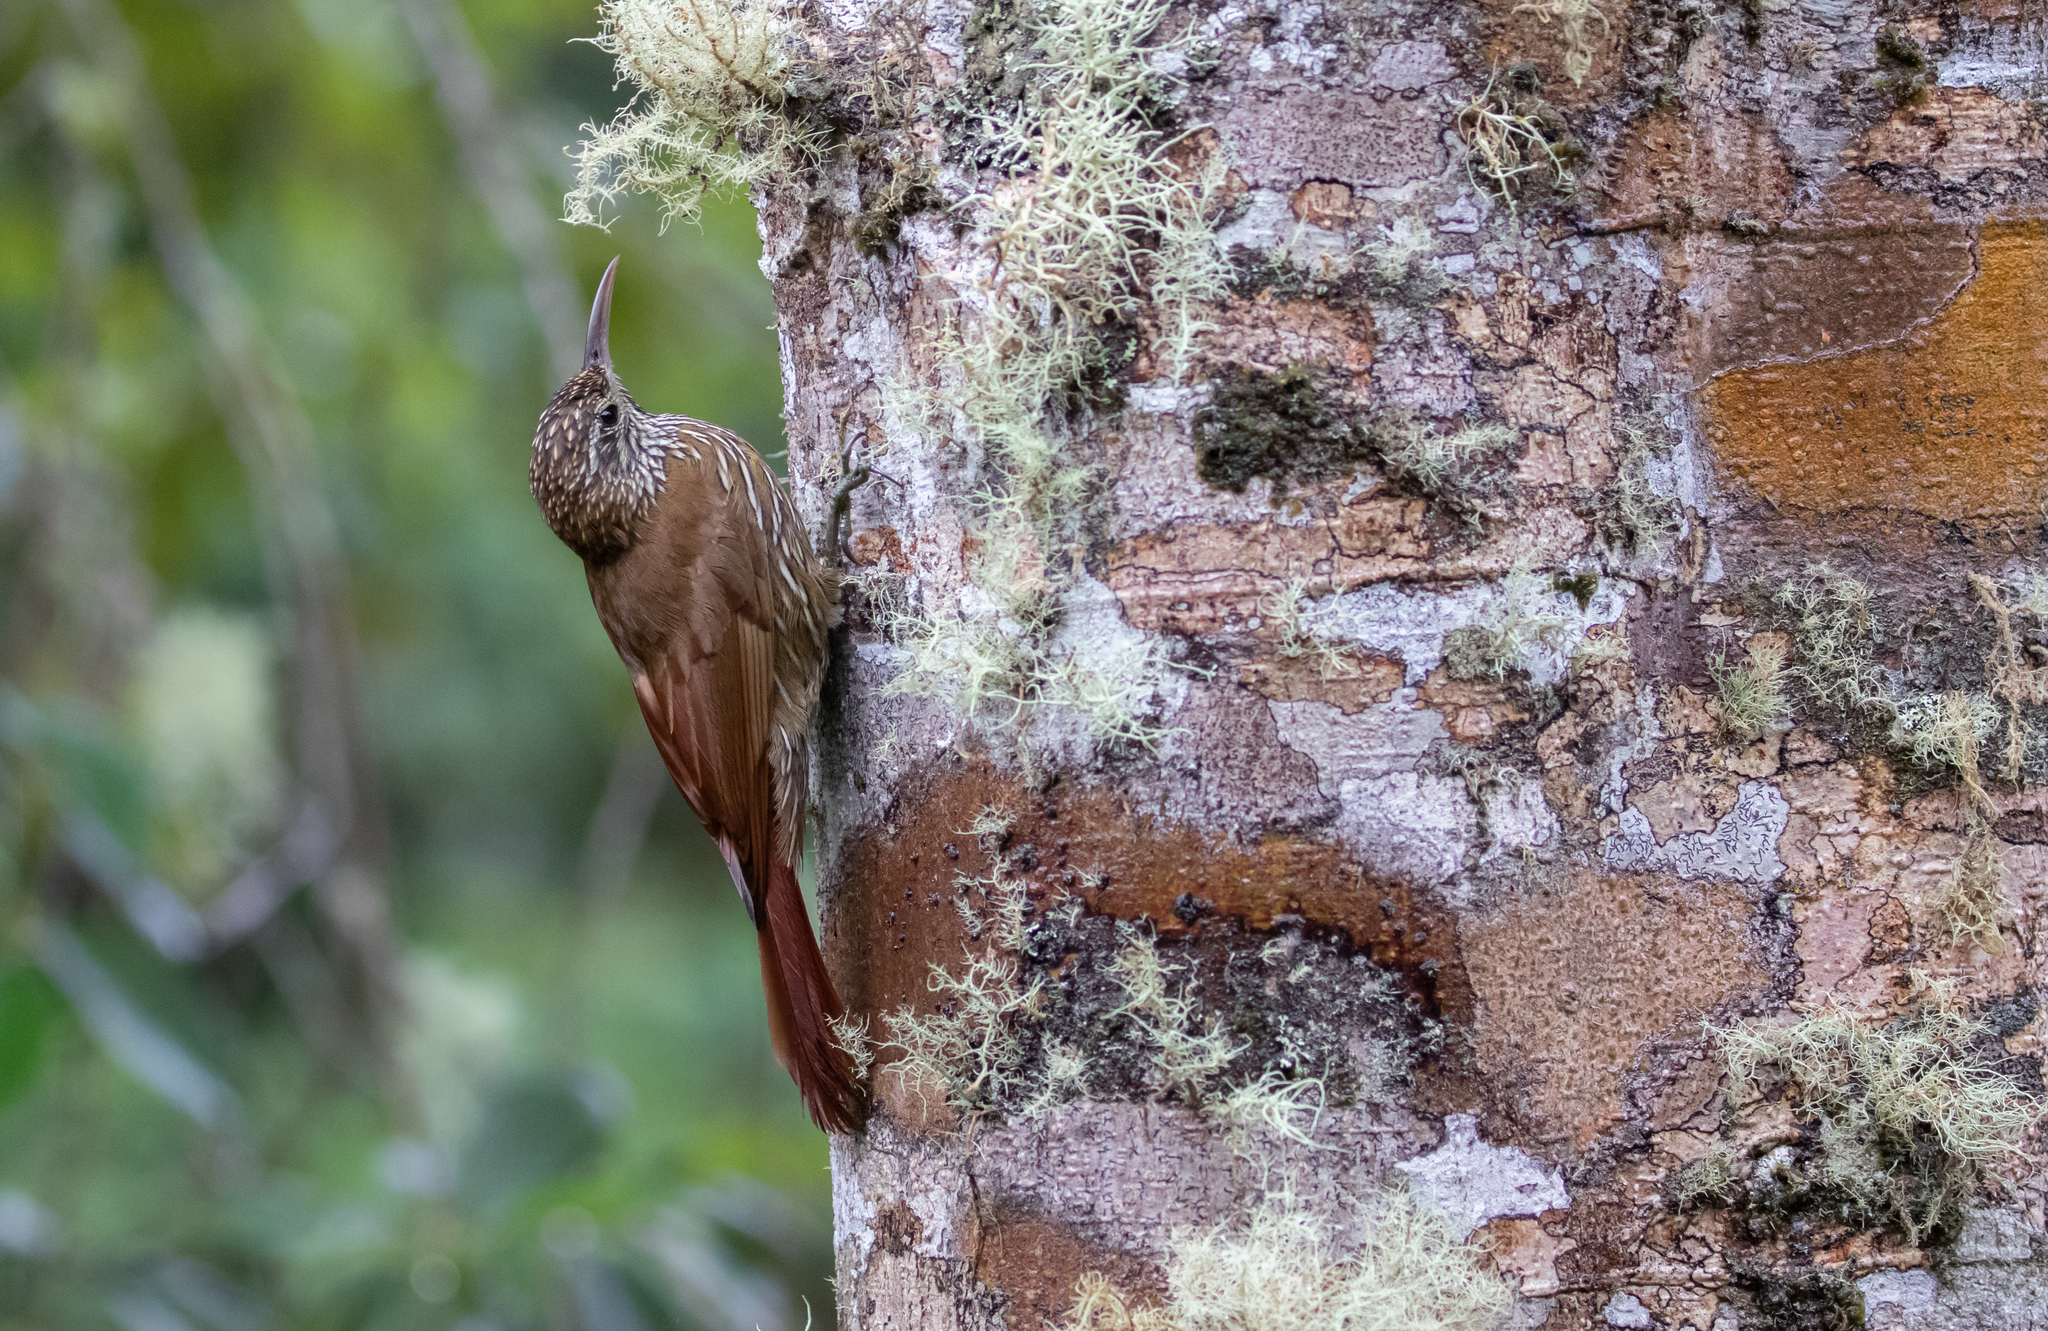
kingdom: Animalia
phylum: Chordata
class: Aves
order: Passeriformes
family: Furnariidae
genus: Lepidocolaptes
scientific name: Lepidocolaptes lacrymiger
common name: Montane woodcreeper
